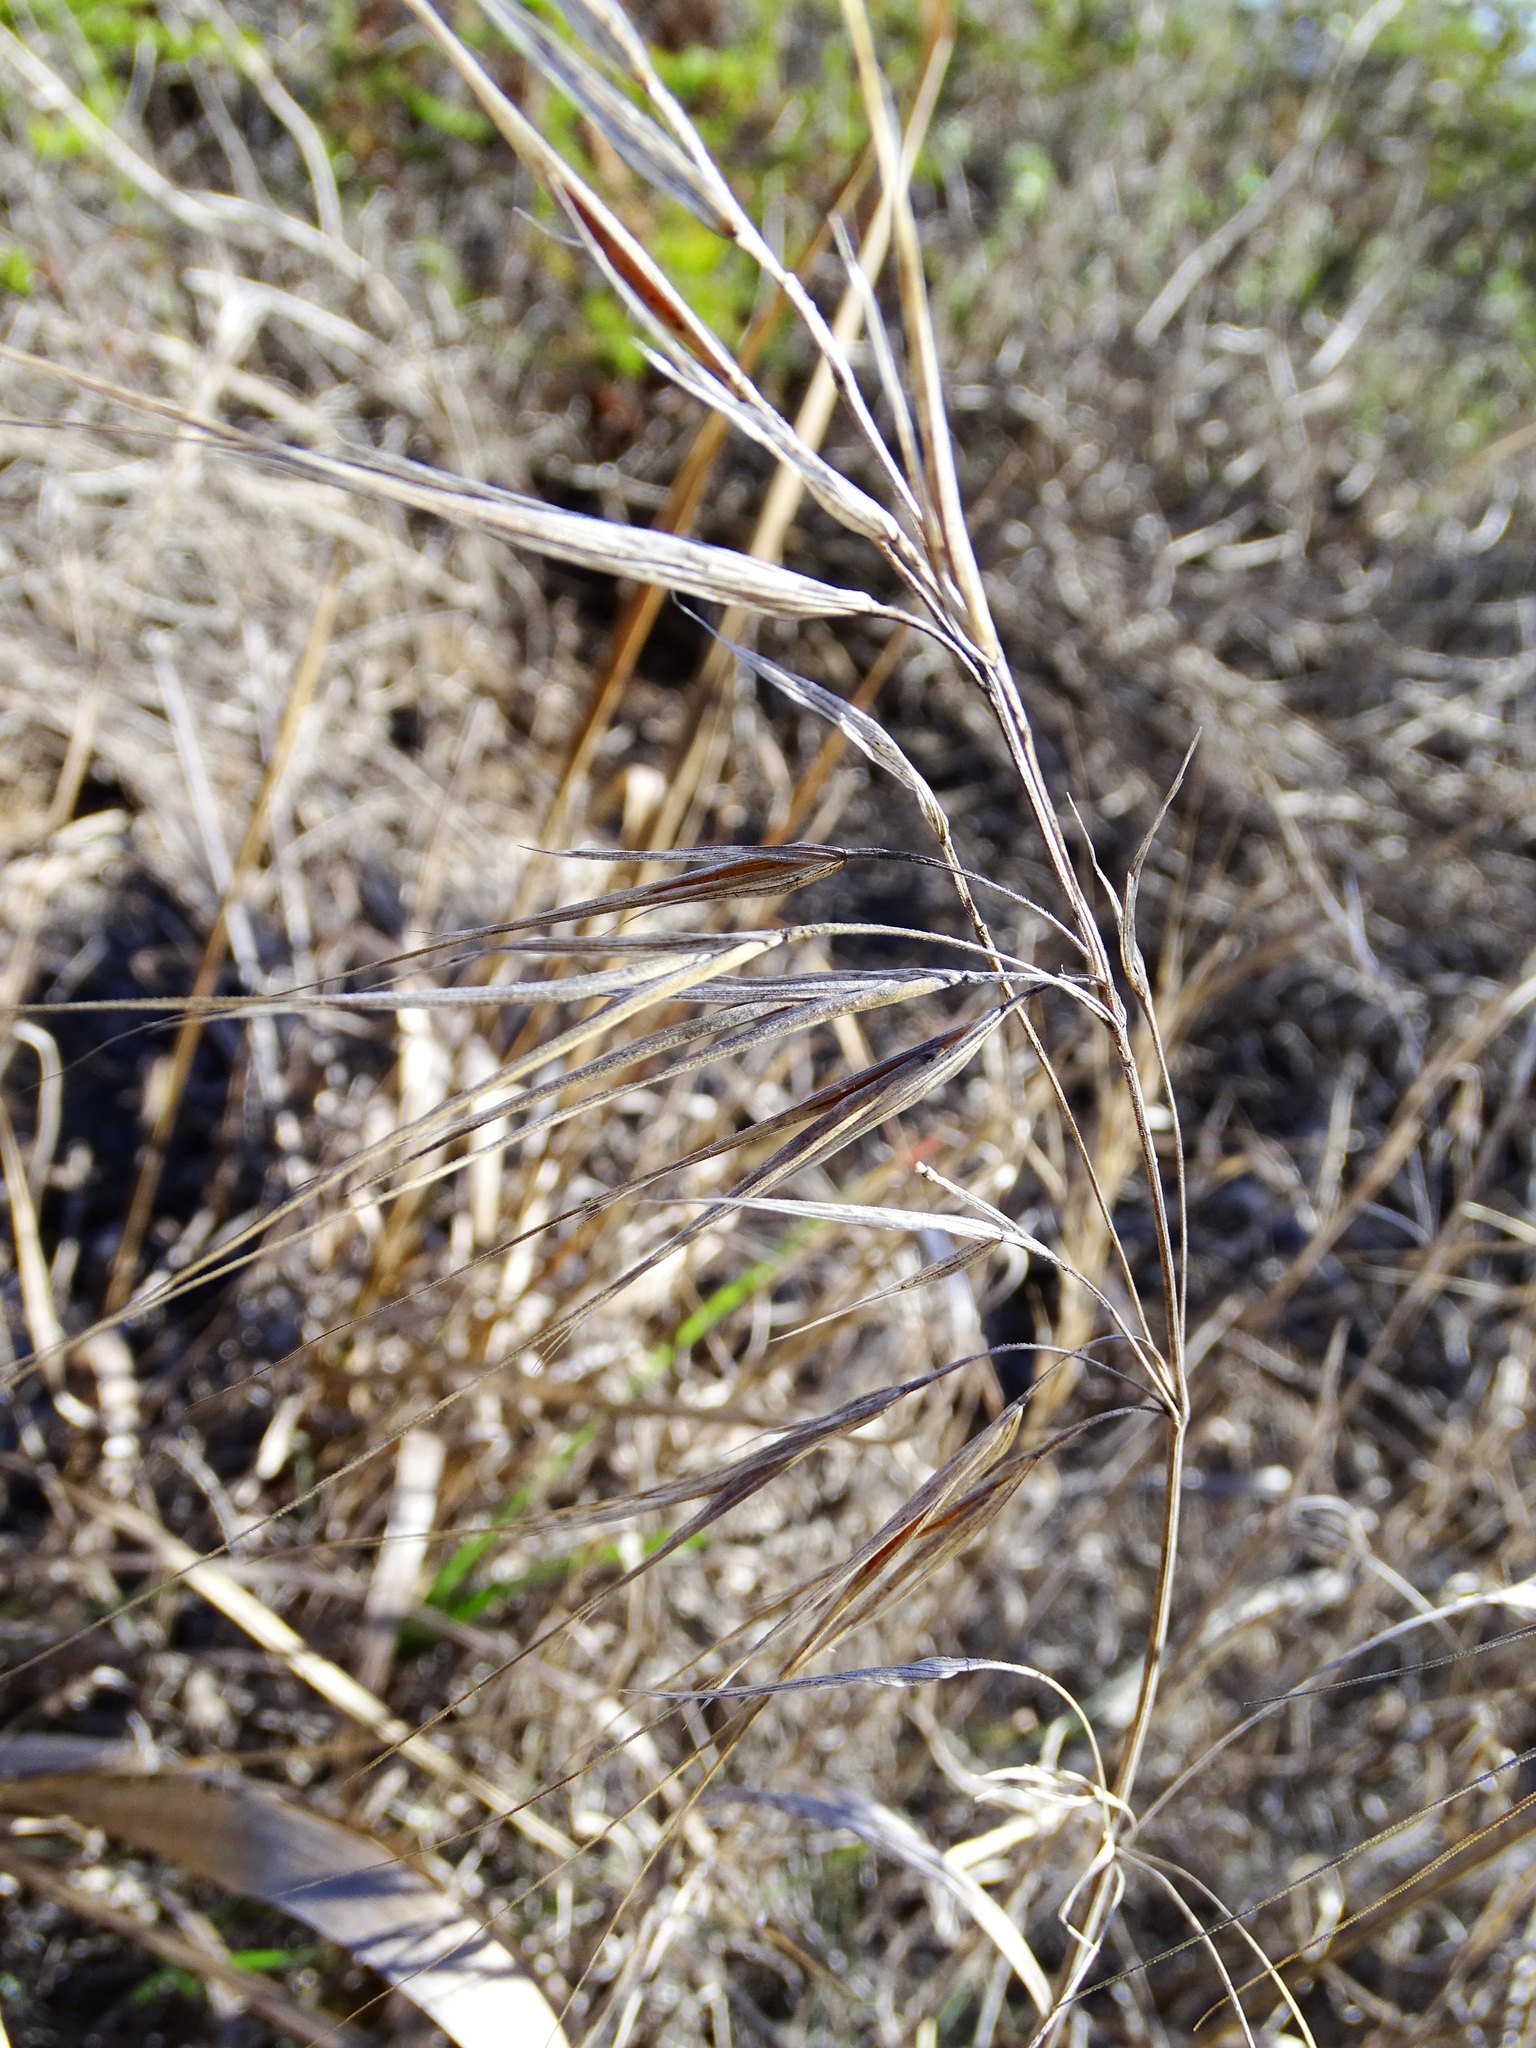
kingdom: Plantae
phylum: Tracheophyta
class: Liliopsida
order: Poales
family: Poaceae
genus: Bromus
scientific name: Bromus diandrus
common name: Ripgut brome
